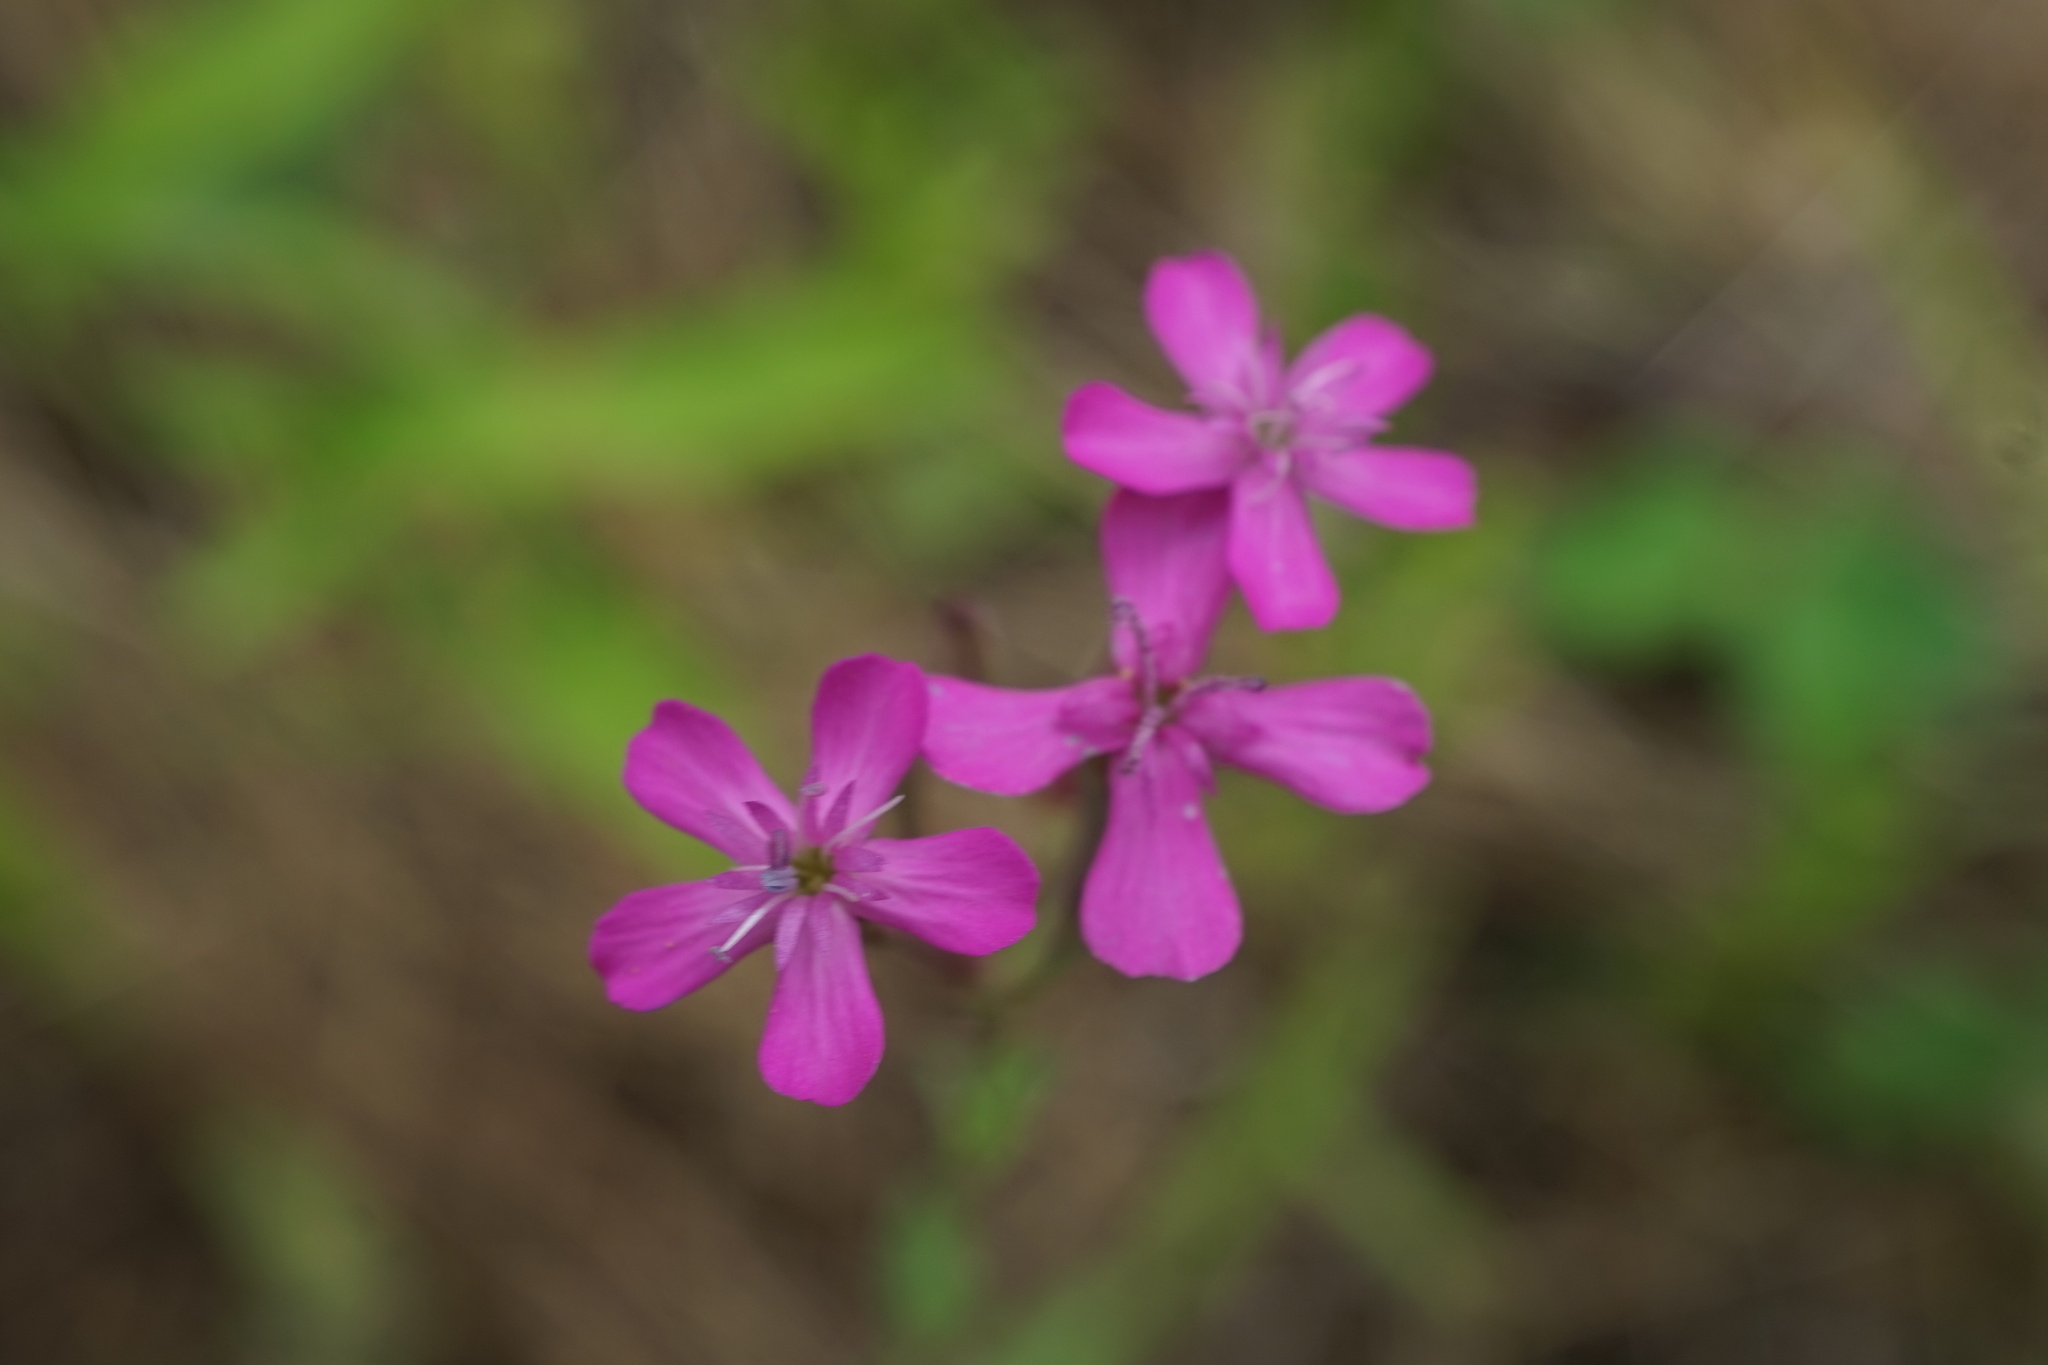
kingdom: Plantae
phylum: Tracheophyta
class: Magnoliopsida
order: Caryophyllales
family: Caryophyllaceae
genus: Atocion
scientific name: Atocion armeria
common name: Sweet william catchfly
